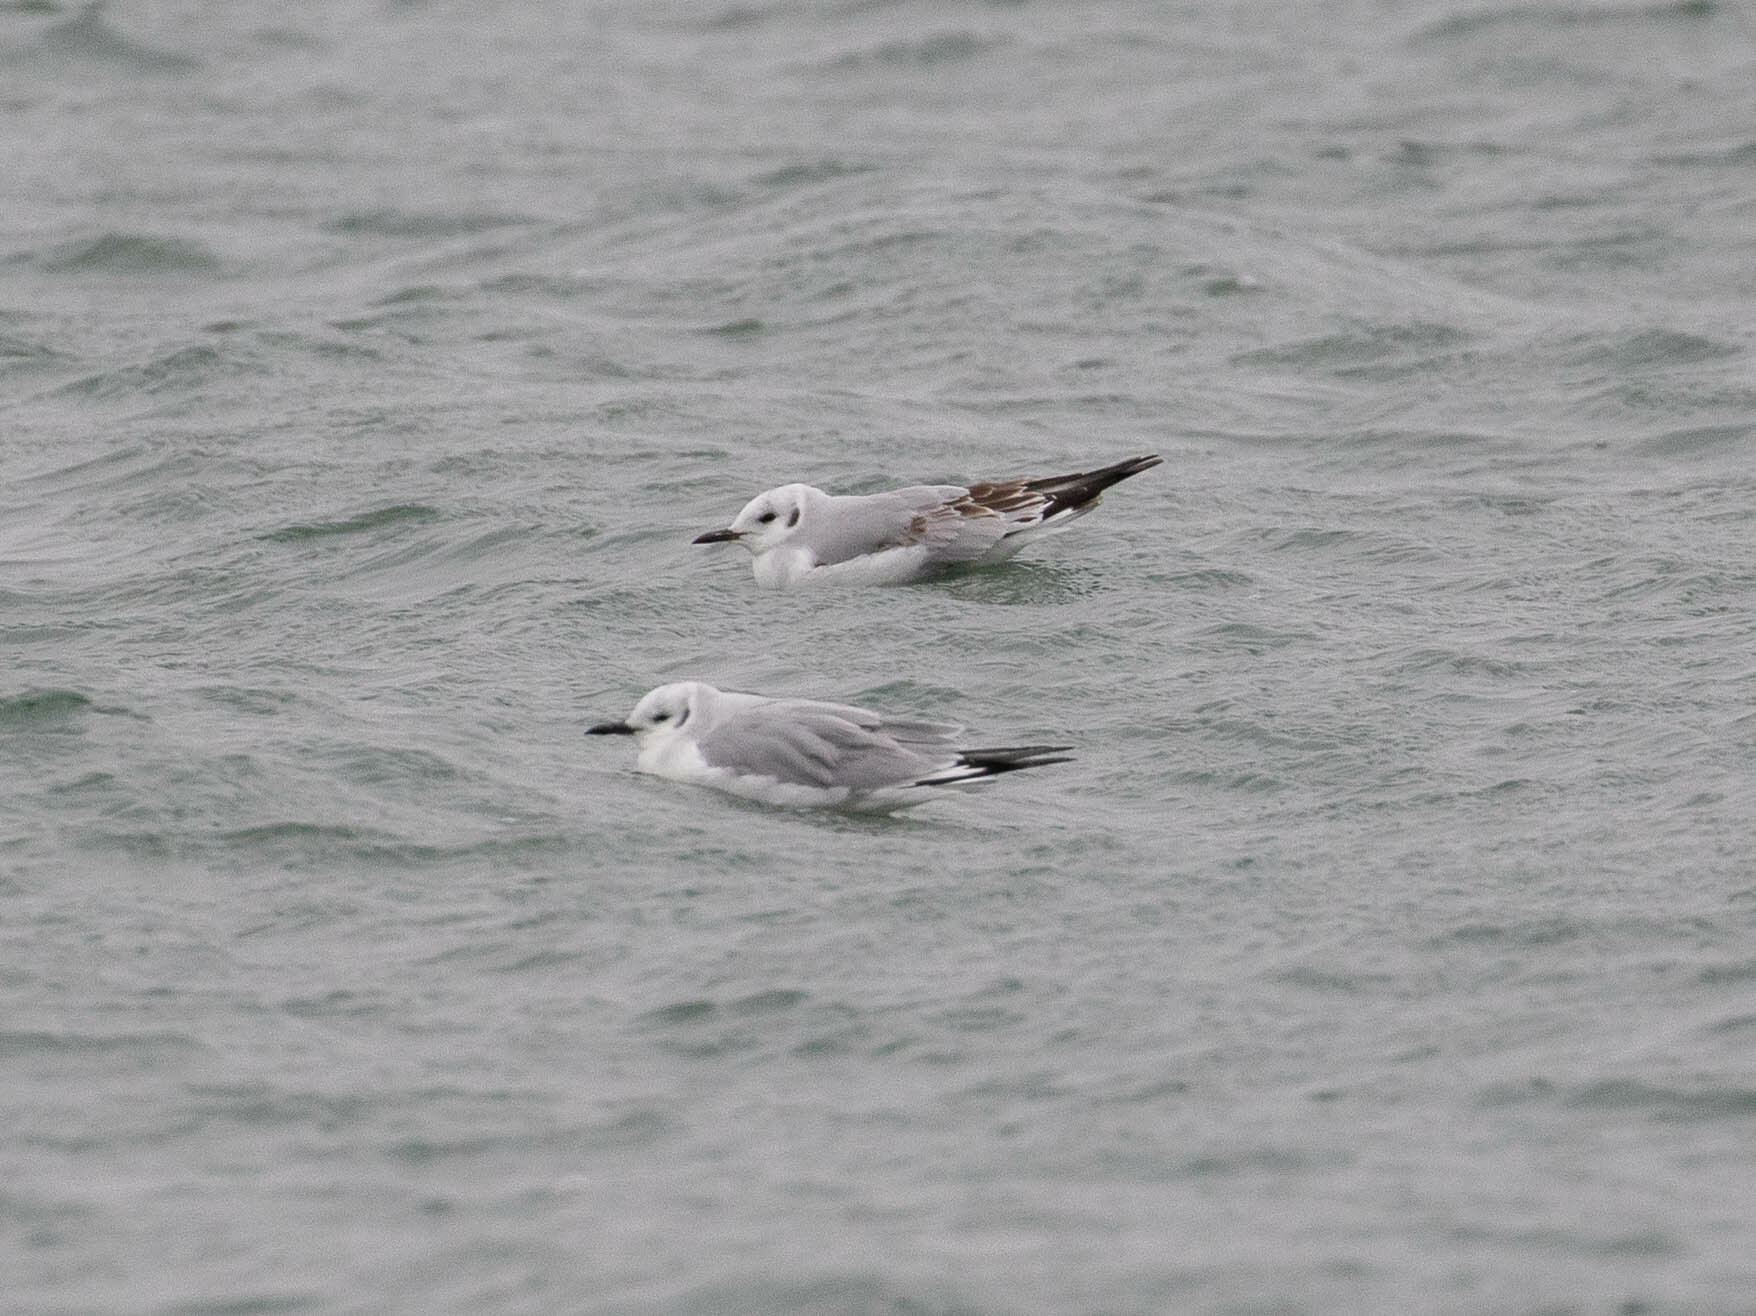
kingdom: Animalia
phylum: Chordata
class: Aves
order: Charadriiformes
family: Laridae
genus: Chroicocephalus
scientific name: Chroicocephalus philadelphia
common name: Bonaparte's gull
